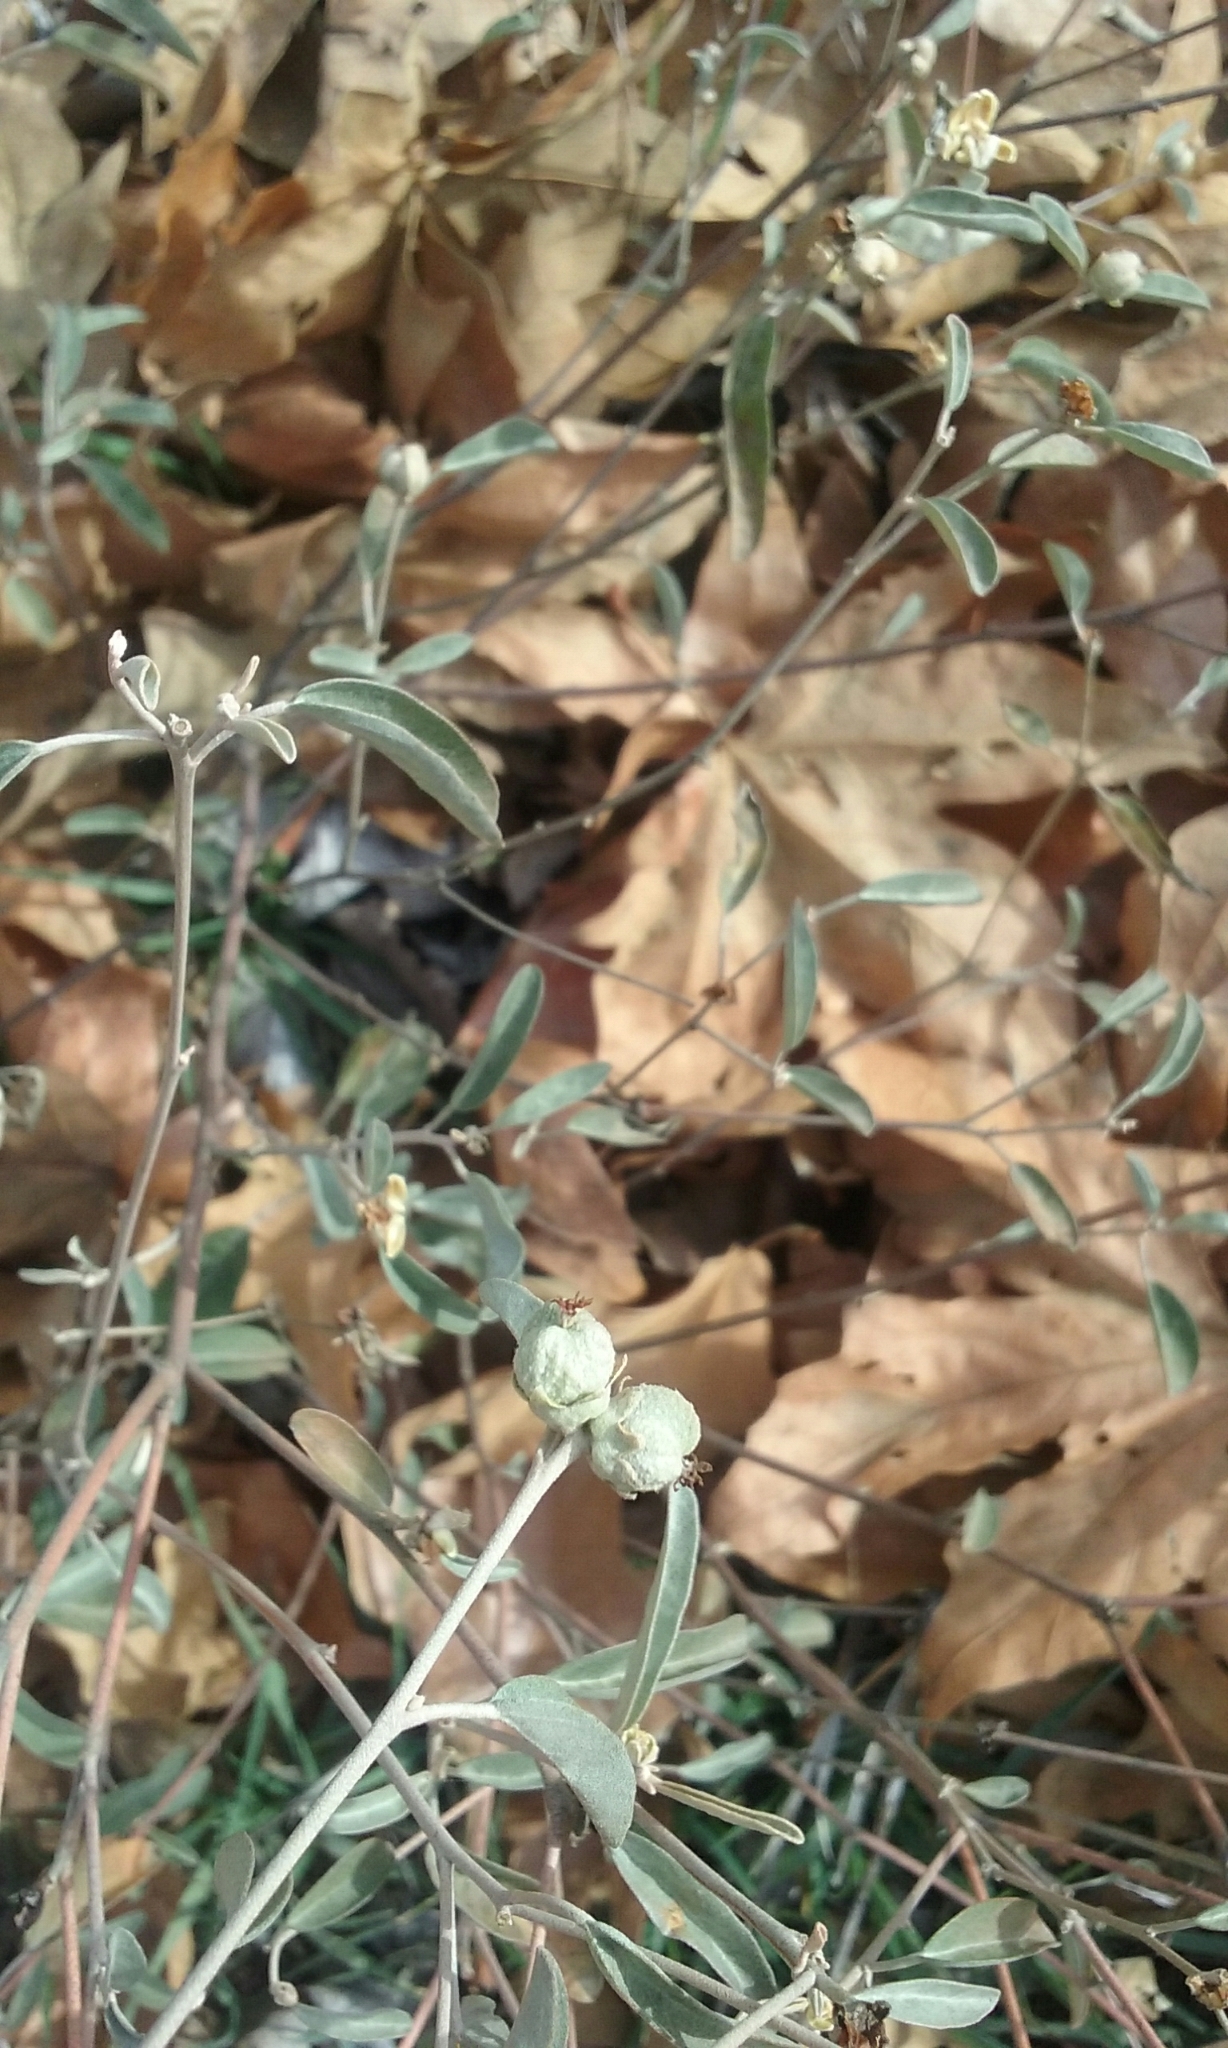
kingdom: Plantae
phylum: Tracheophyta
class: Magnoliopsida
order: Malpighiales
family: Euphorbiaceae
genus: Croton
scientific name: Croton californicus
